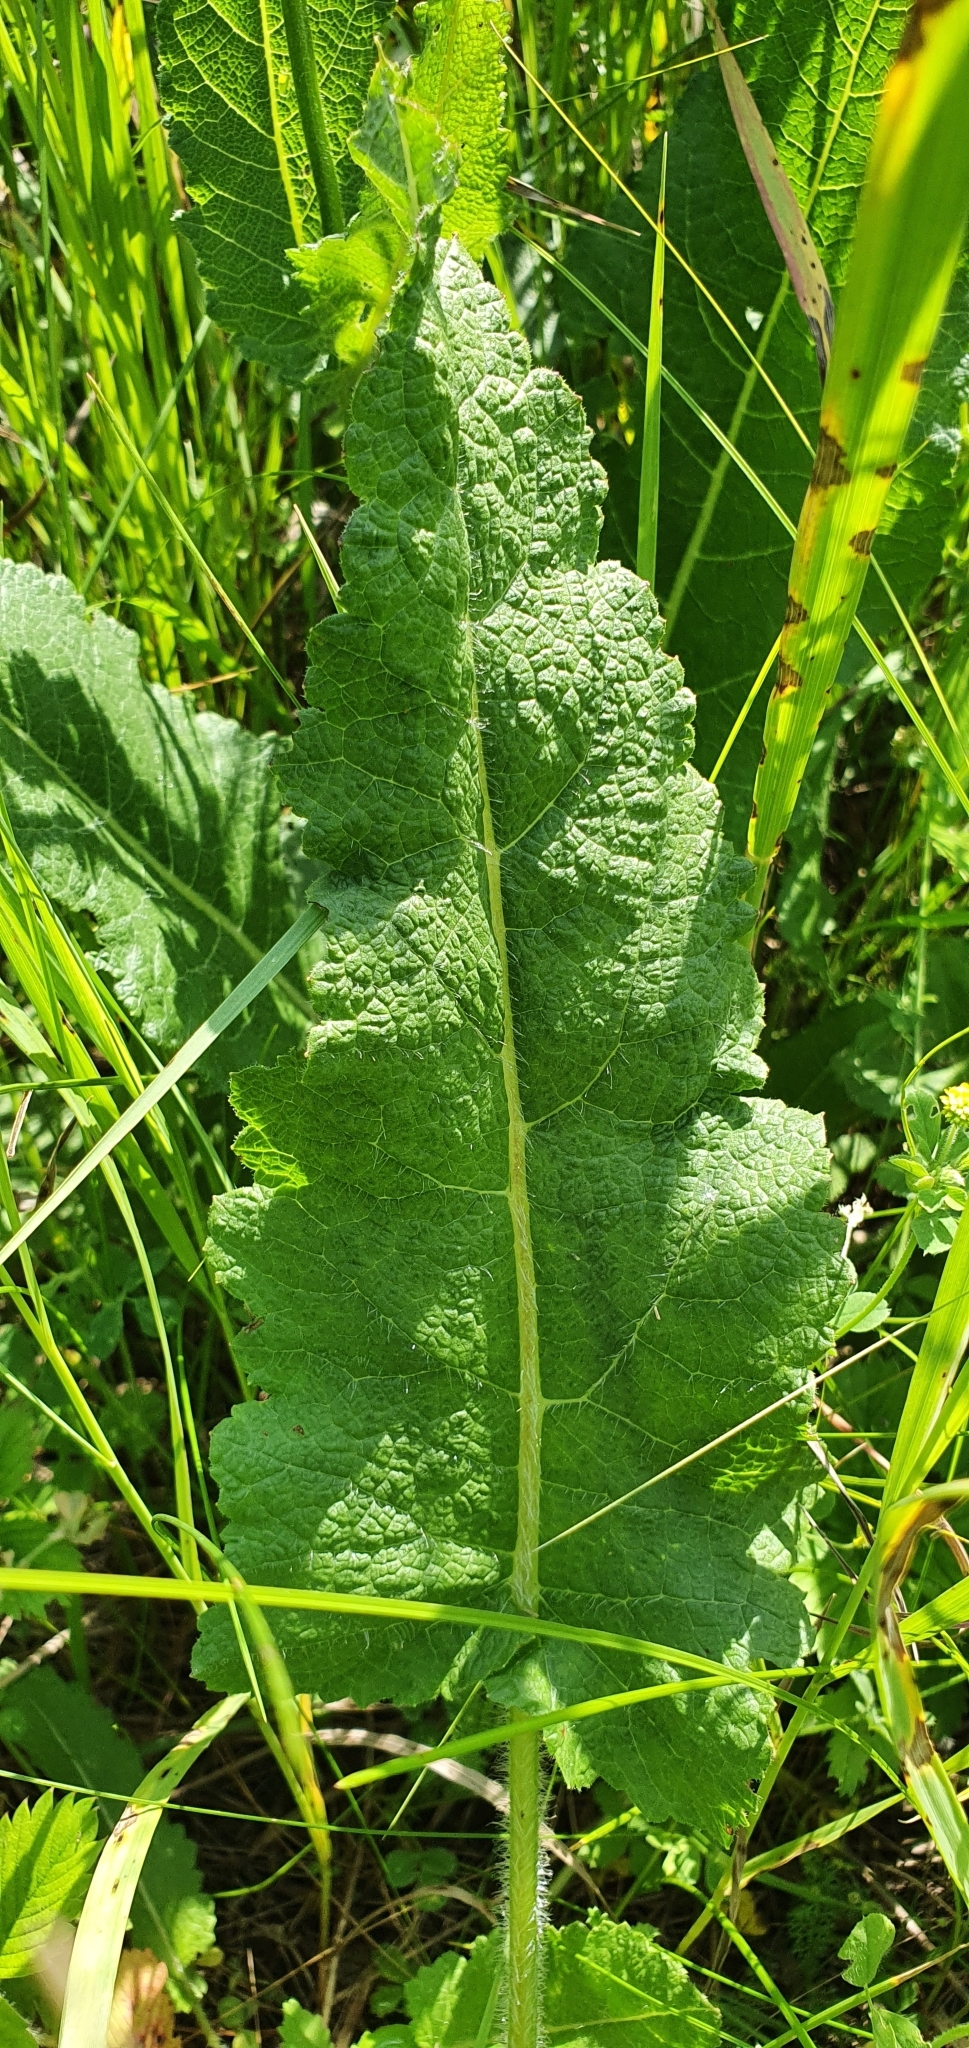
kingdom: Plantae
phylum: Tracheophyta
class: Magnoliopsida
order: Lamiales
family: Lamiaceae
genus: Salvia
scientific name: Salvia pratensis
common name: Meadow sage
